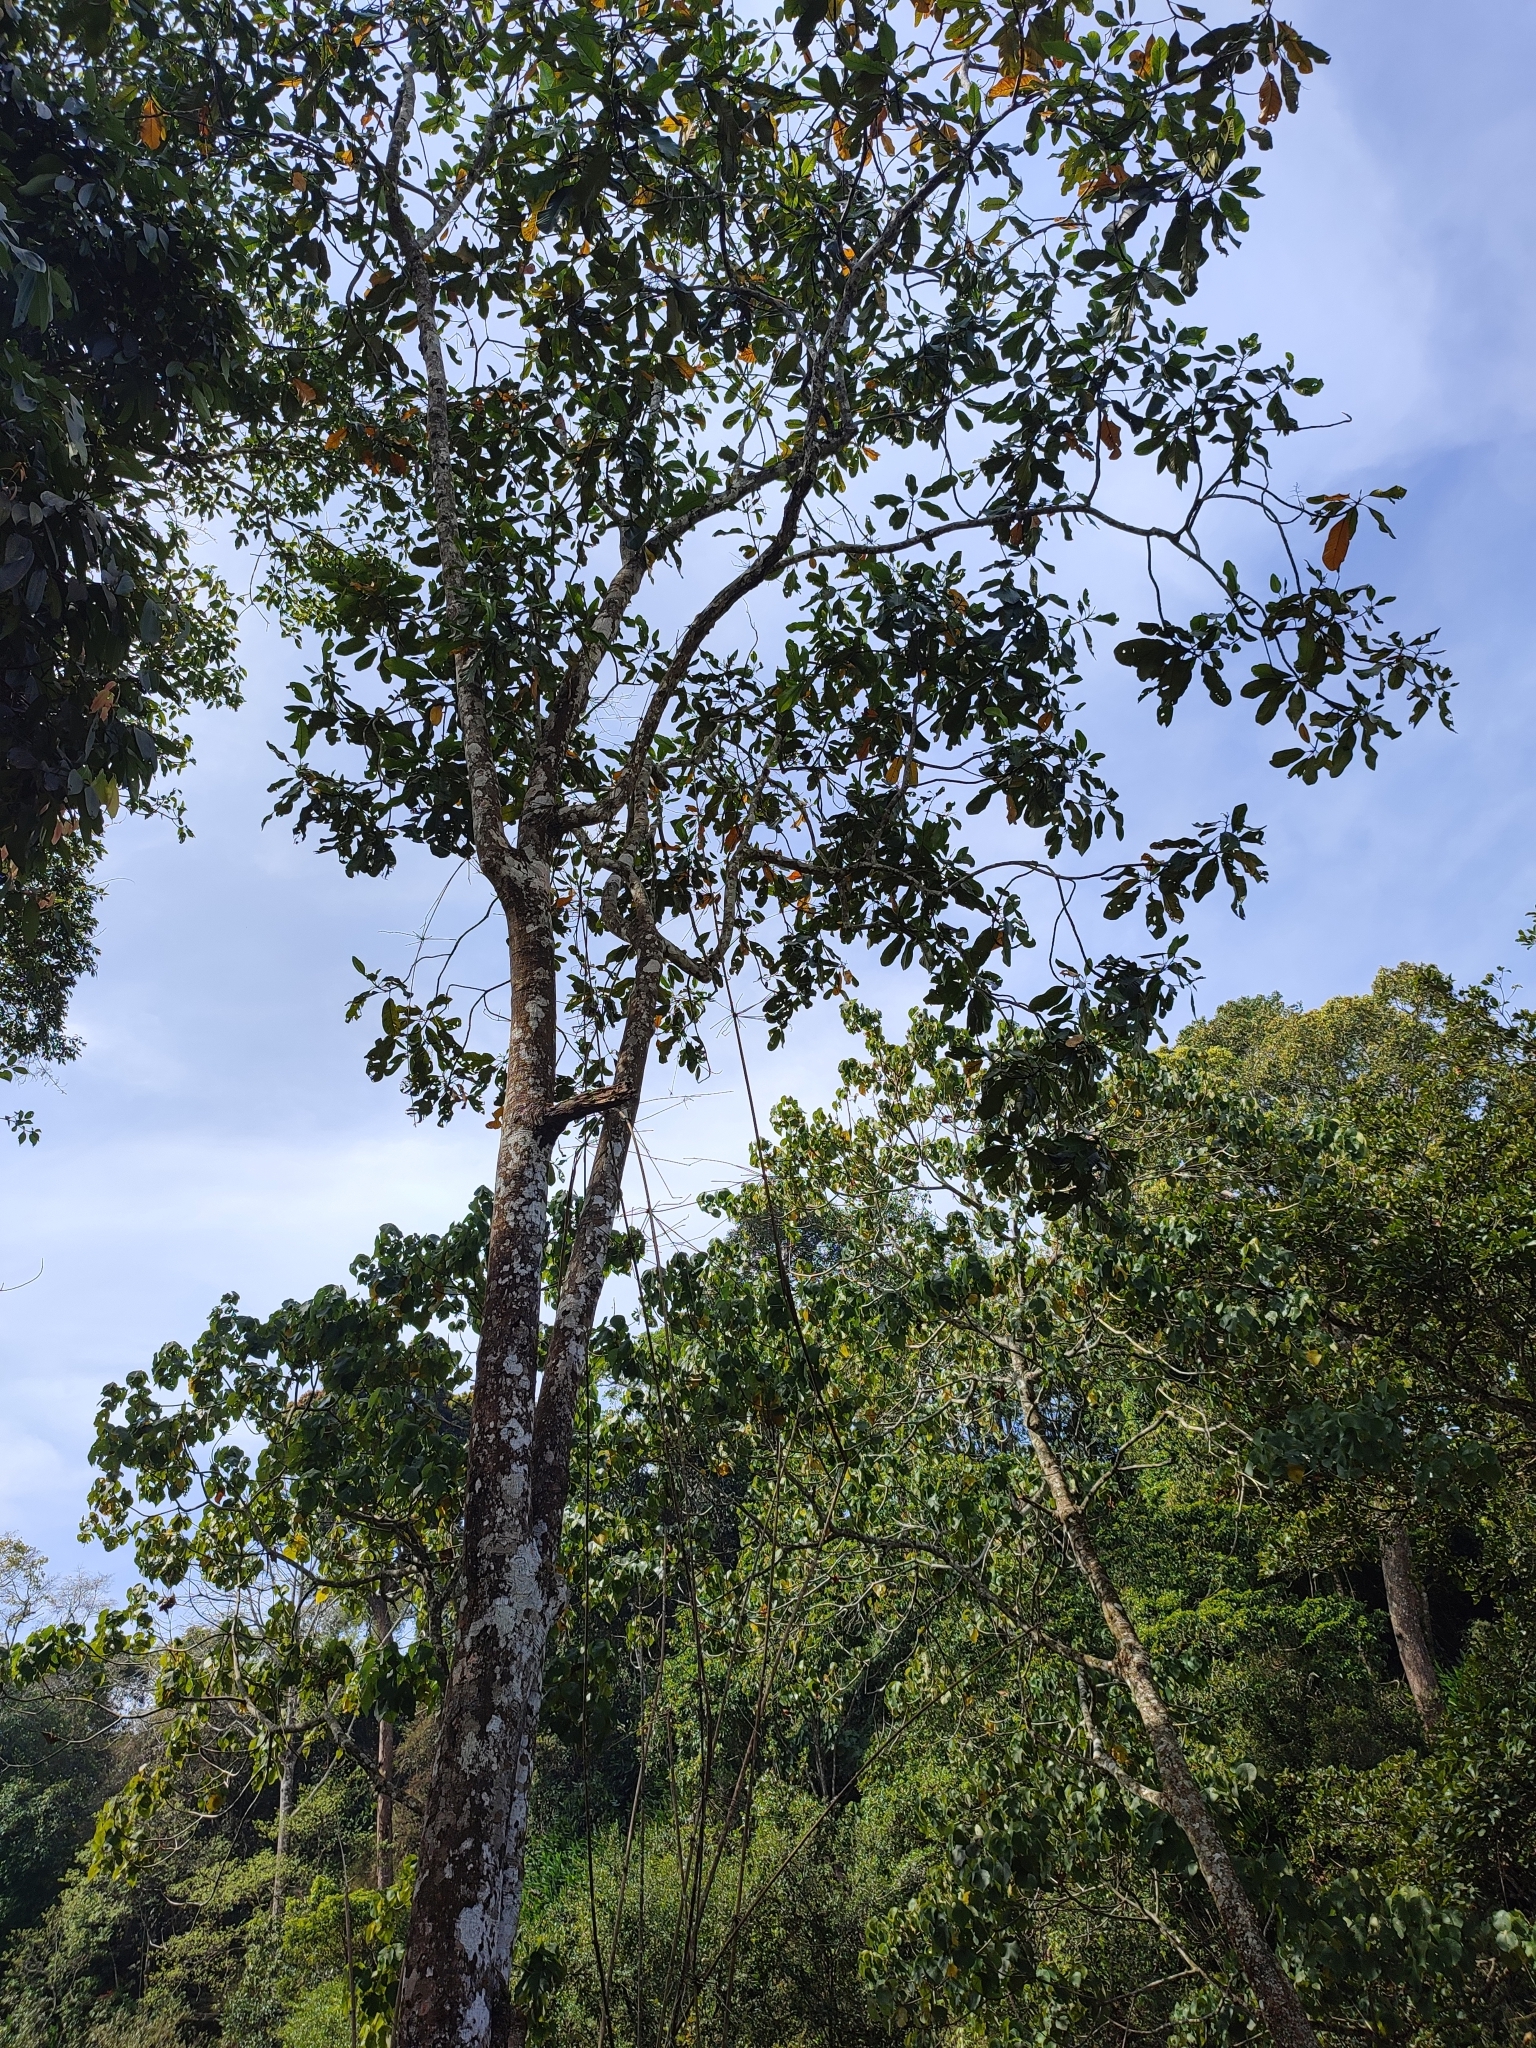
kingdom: Plantae
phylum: Tracheophyta
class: Magnoliopsida
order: Sapindales
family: Anacardiaceae
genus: Semecarpus
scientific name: Semecarpus travancoricus
